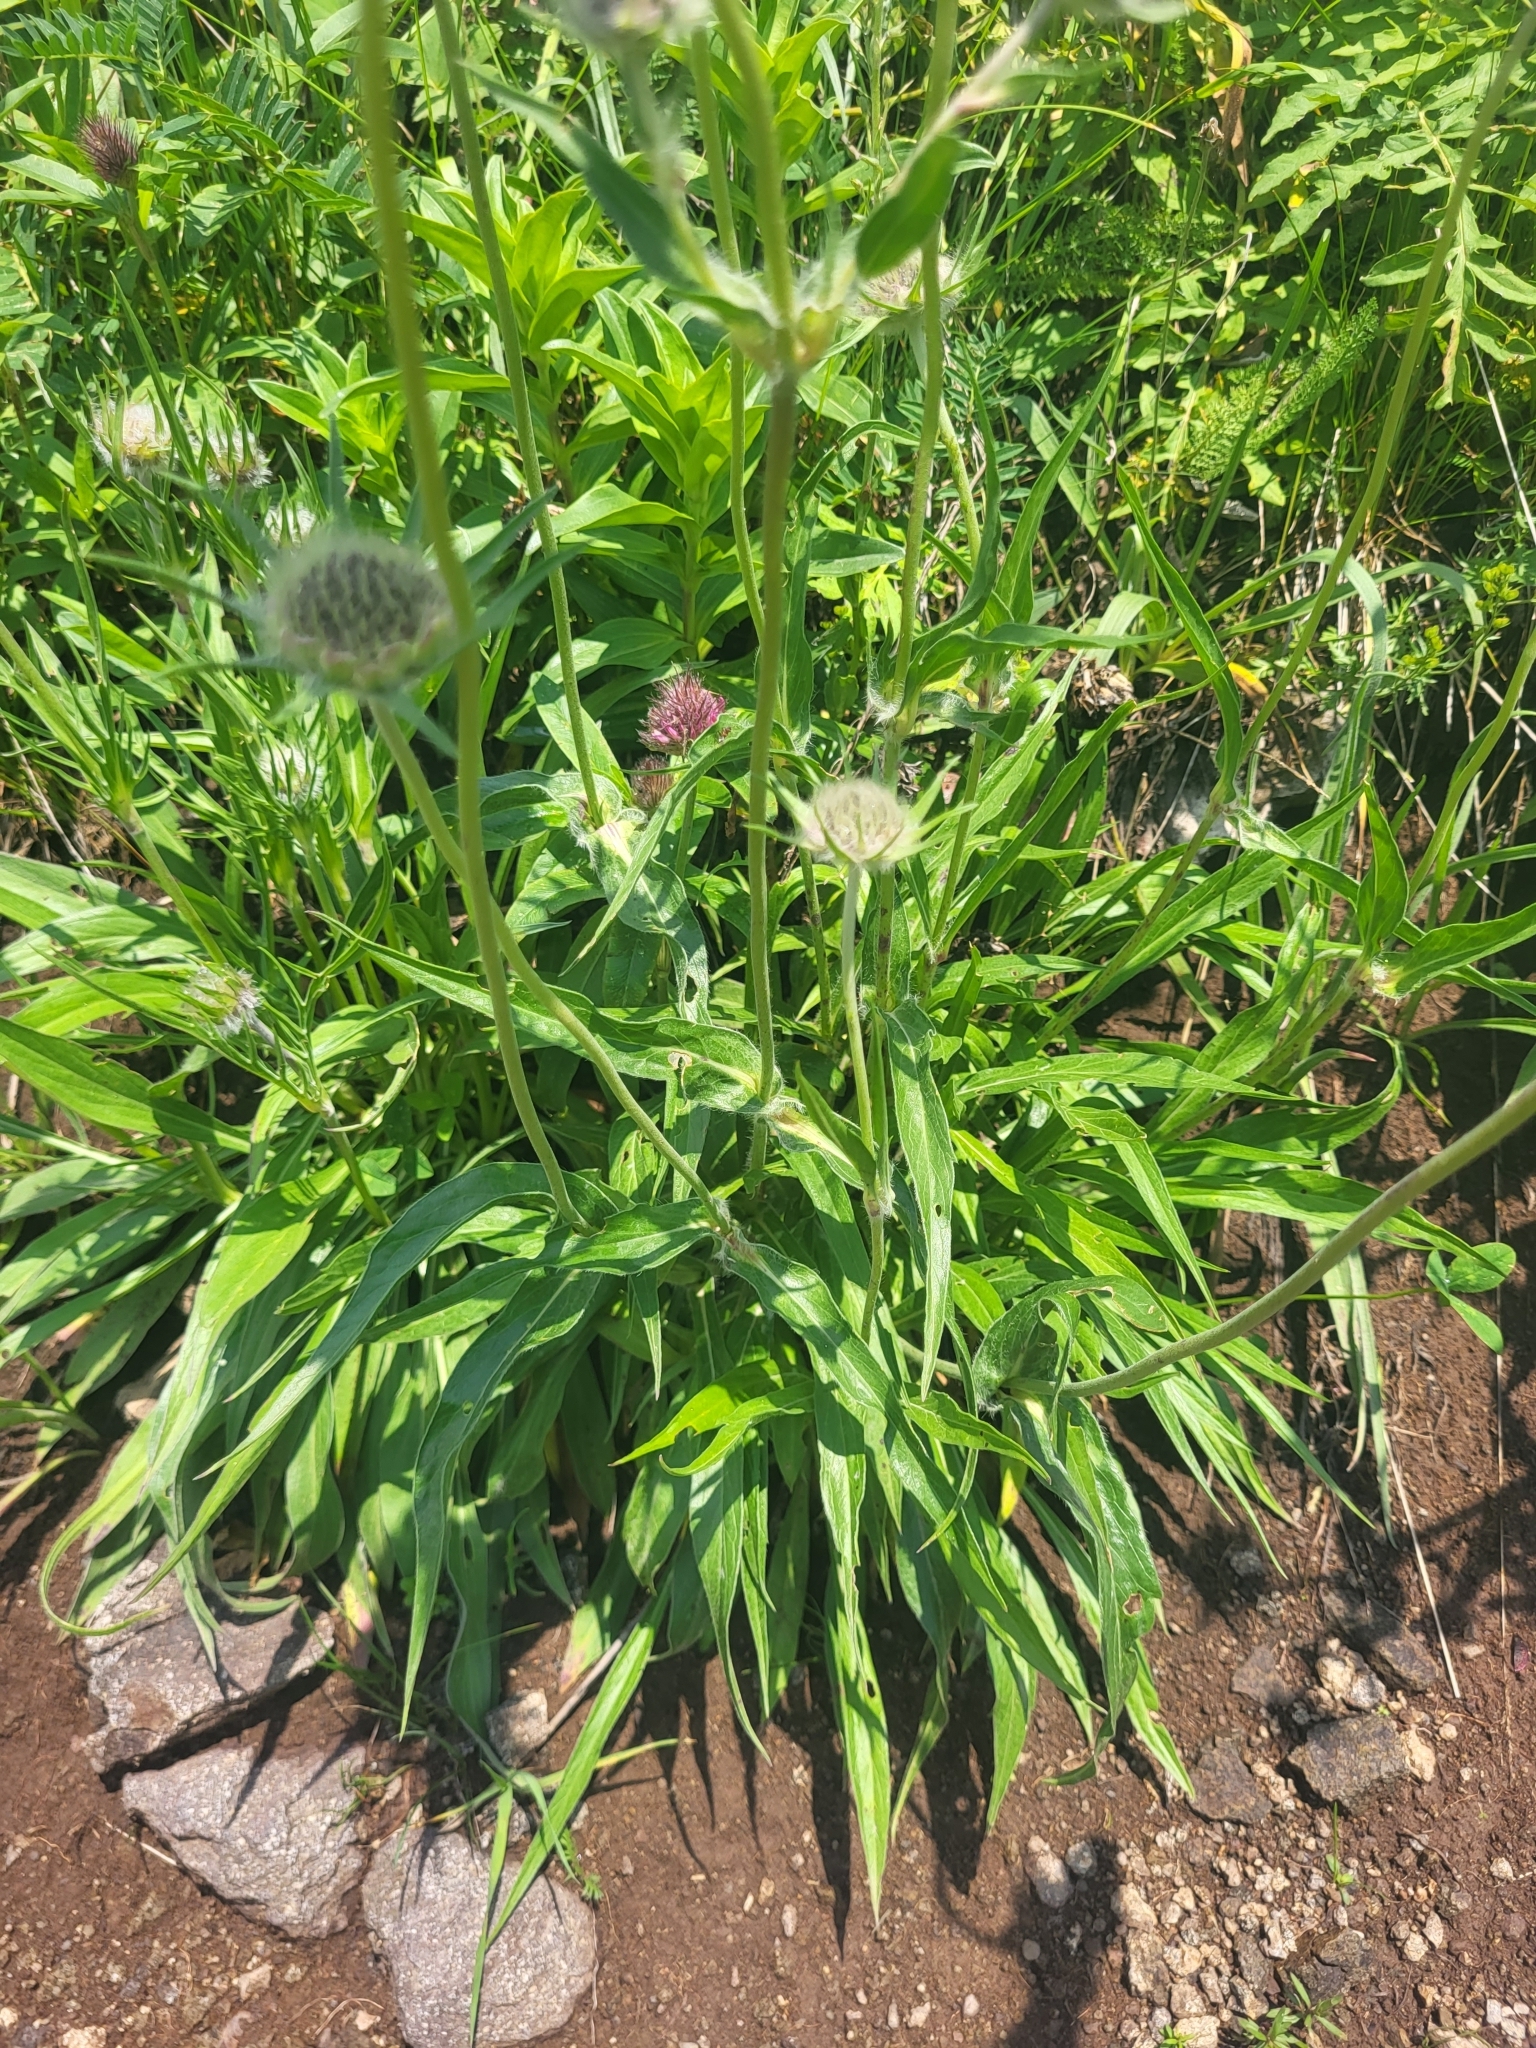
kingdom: Plantae
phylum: Tracheophyta
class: Magnoliopsida
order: Dipsacales
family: Caprifoliaceae
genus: Lomelosia
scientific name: Lomelosia caucasica
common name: Pincushion-flower
